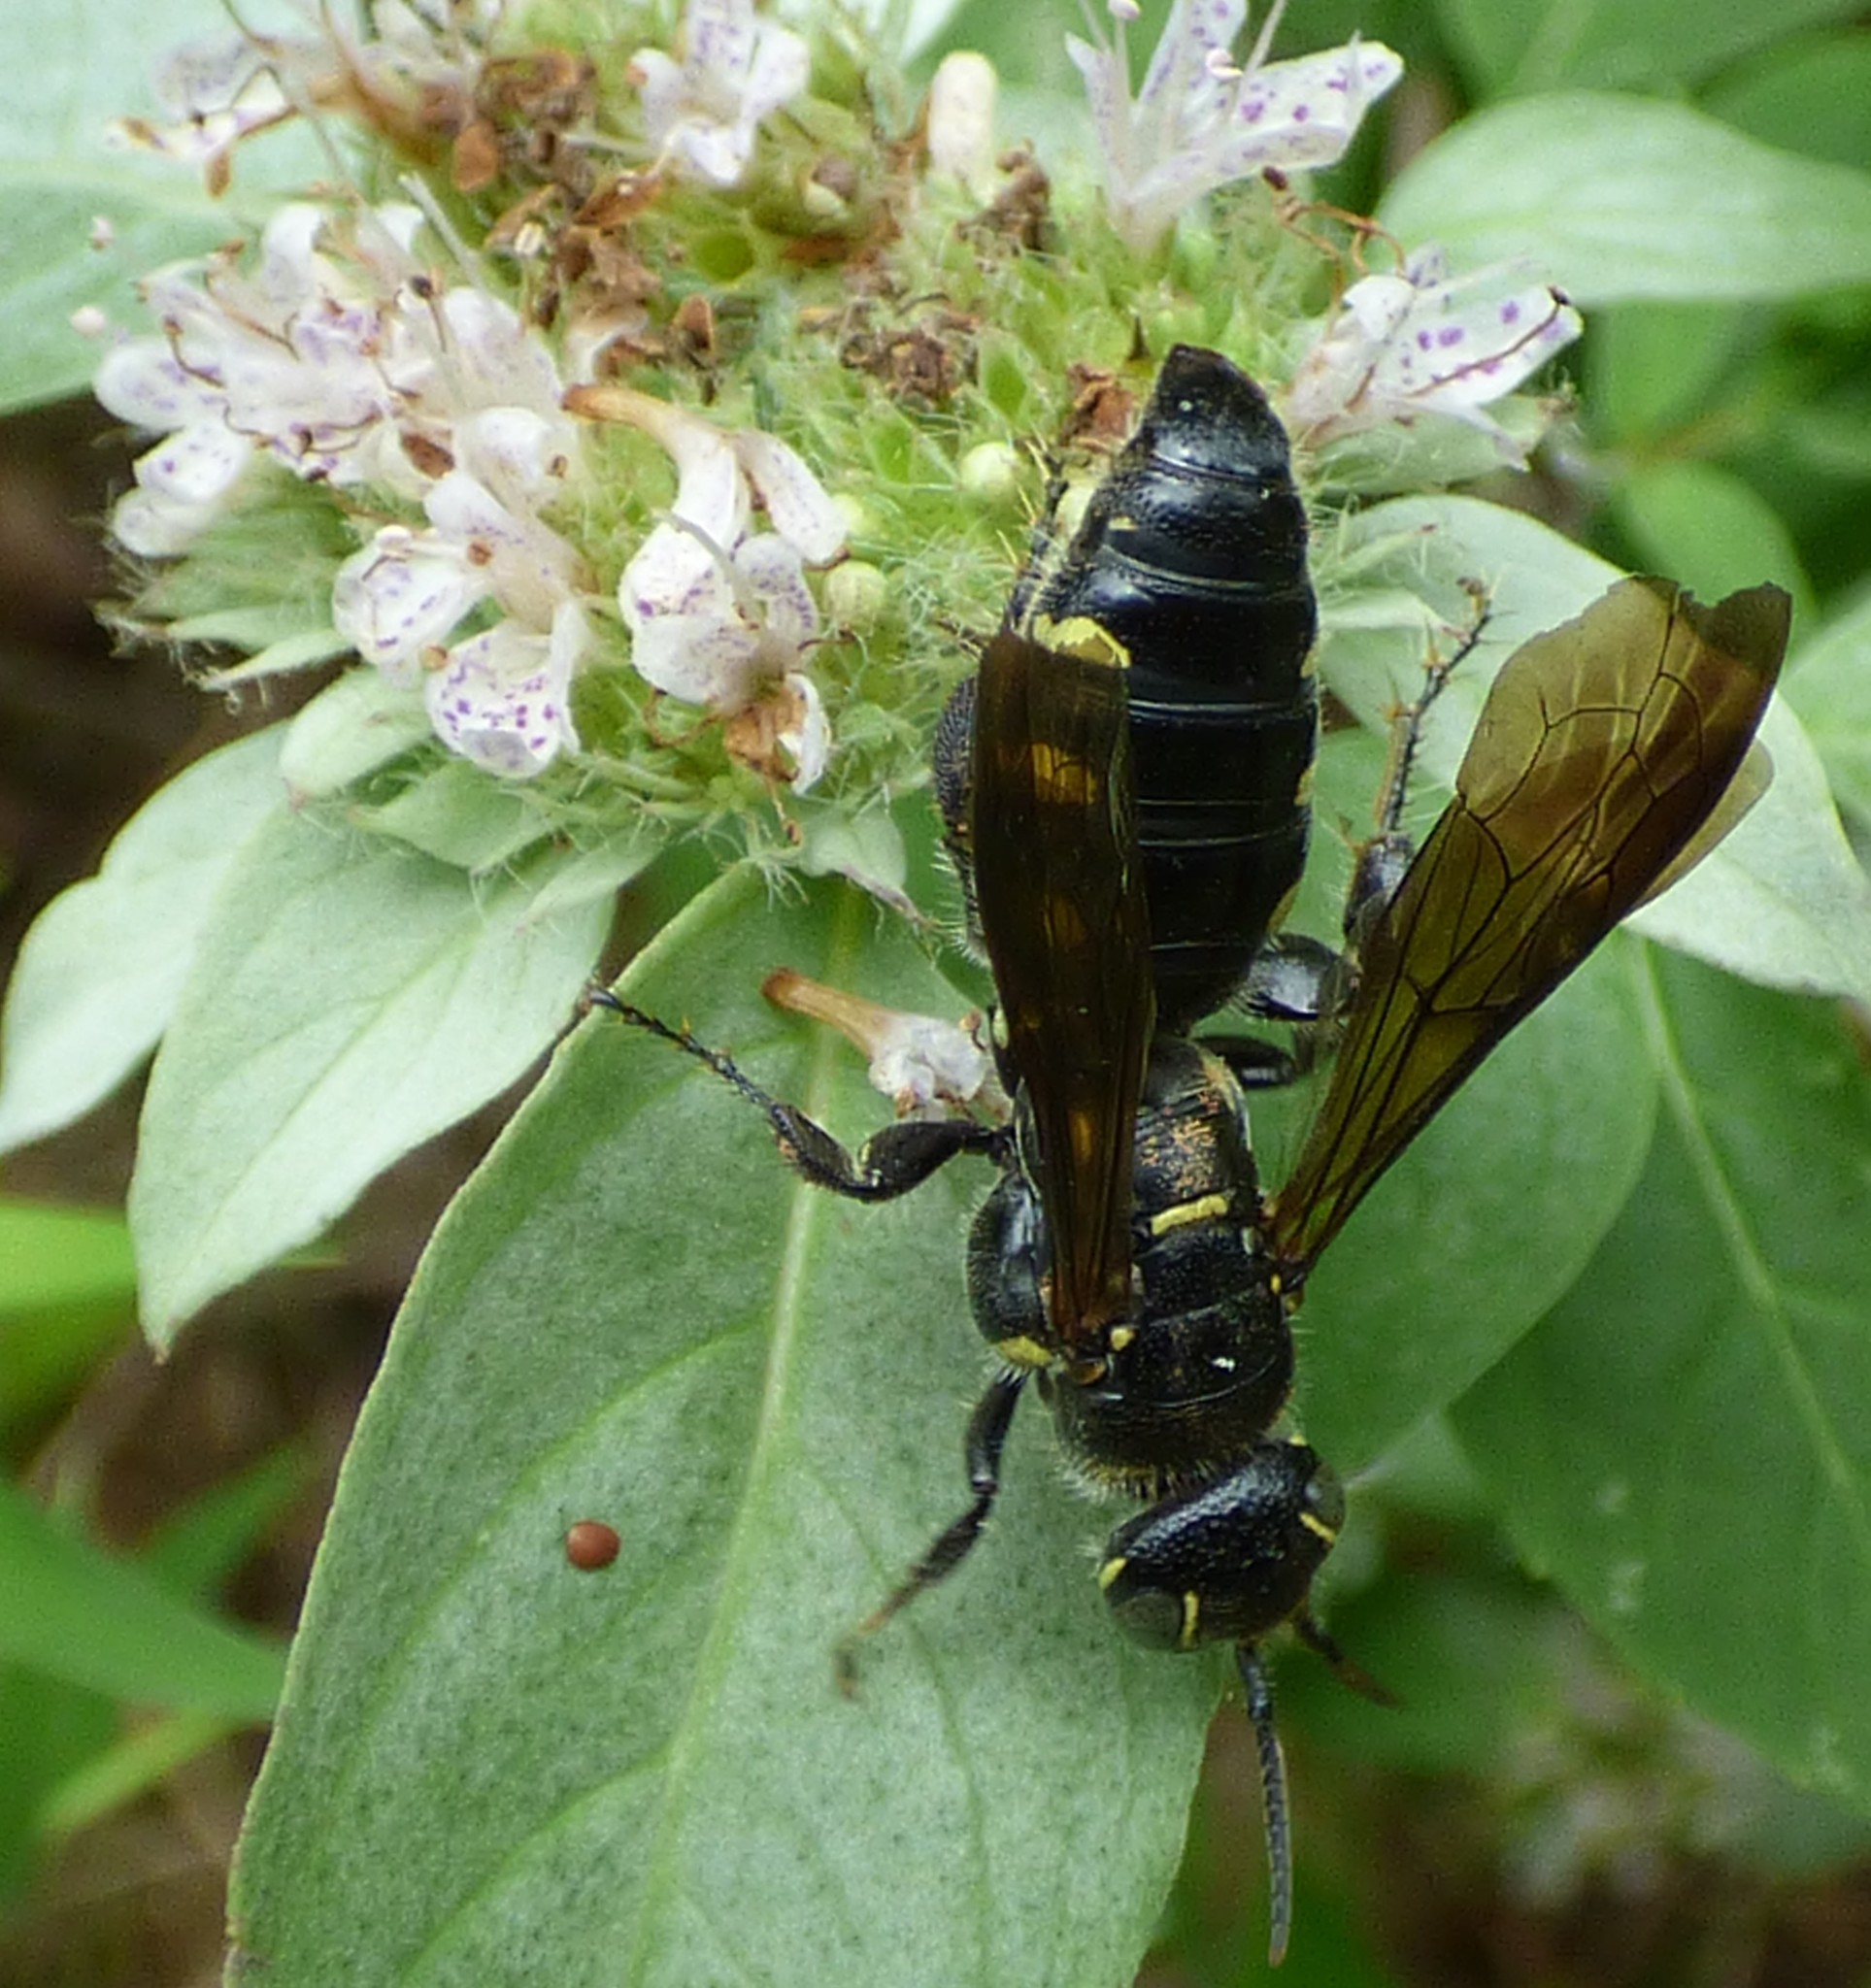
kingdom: Animalia
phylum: Arthropoda
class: Insecta
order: Hymenoptera
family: Tiphiidae
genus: Myzinum
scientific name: Myzinum obscurum
